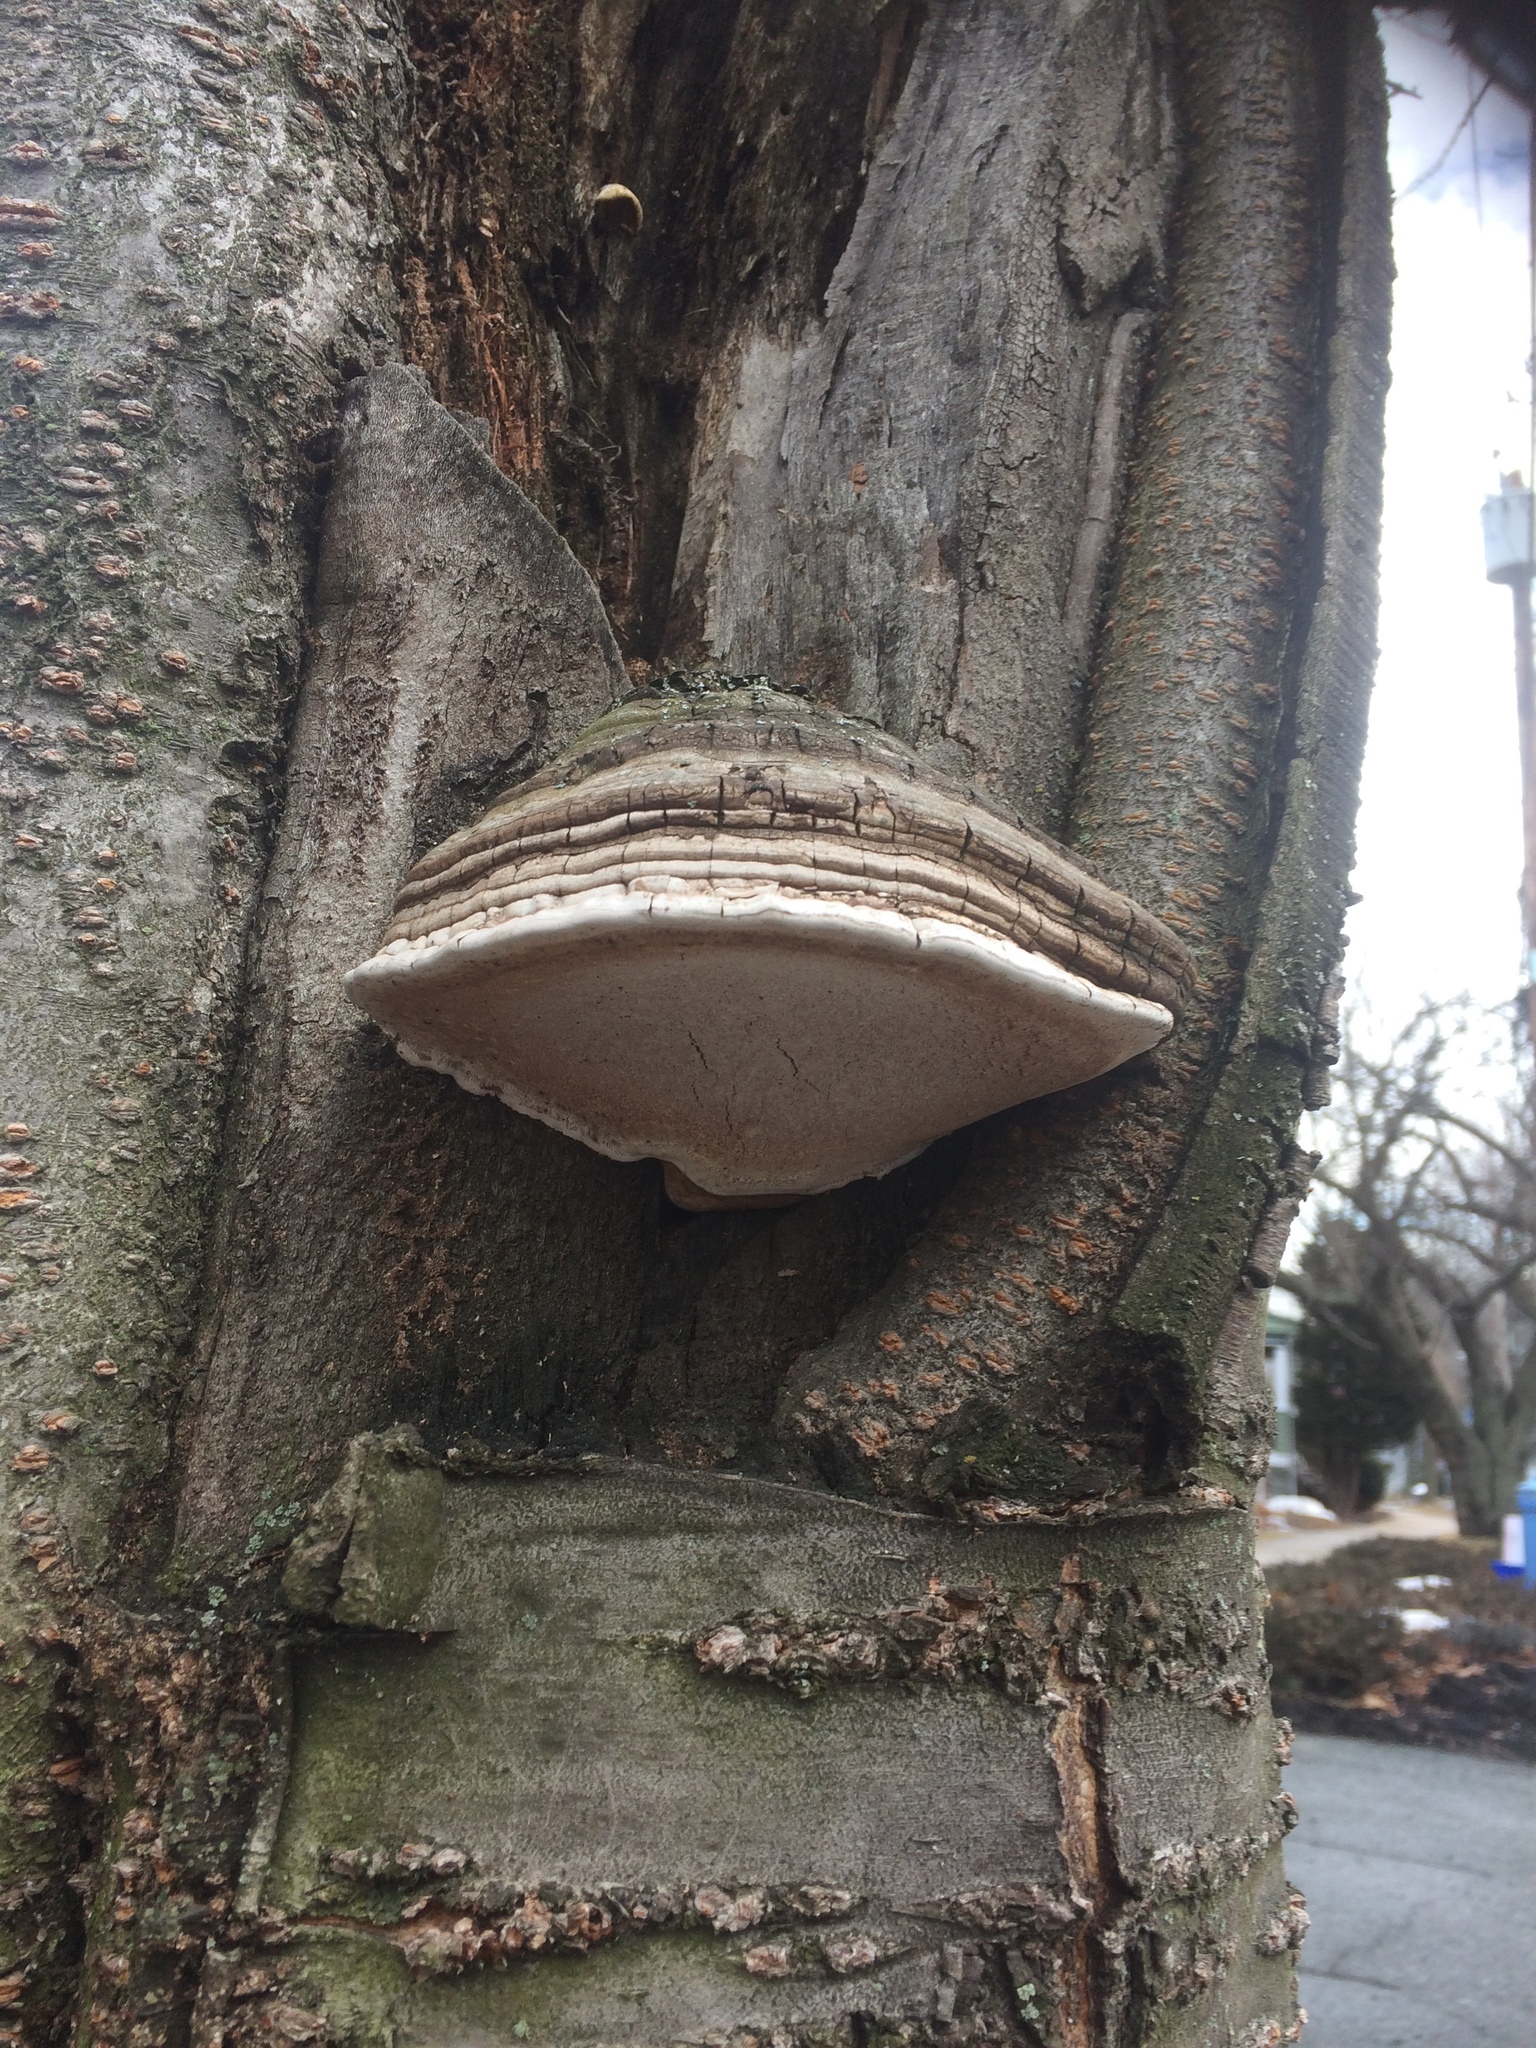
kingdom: Fungi
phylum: Basidiomycota
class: Agaricomycetes
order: Polyporales
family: Polyporaceae
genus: Fomes
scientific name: Fomes fomentarius
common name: Hoof fungus
